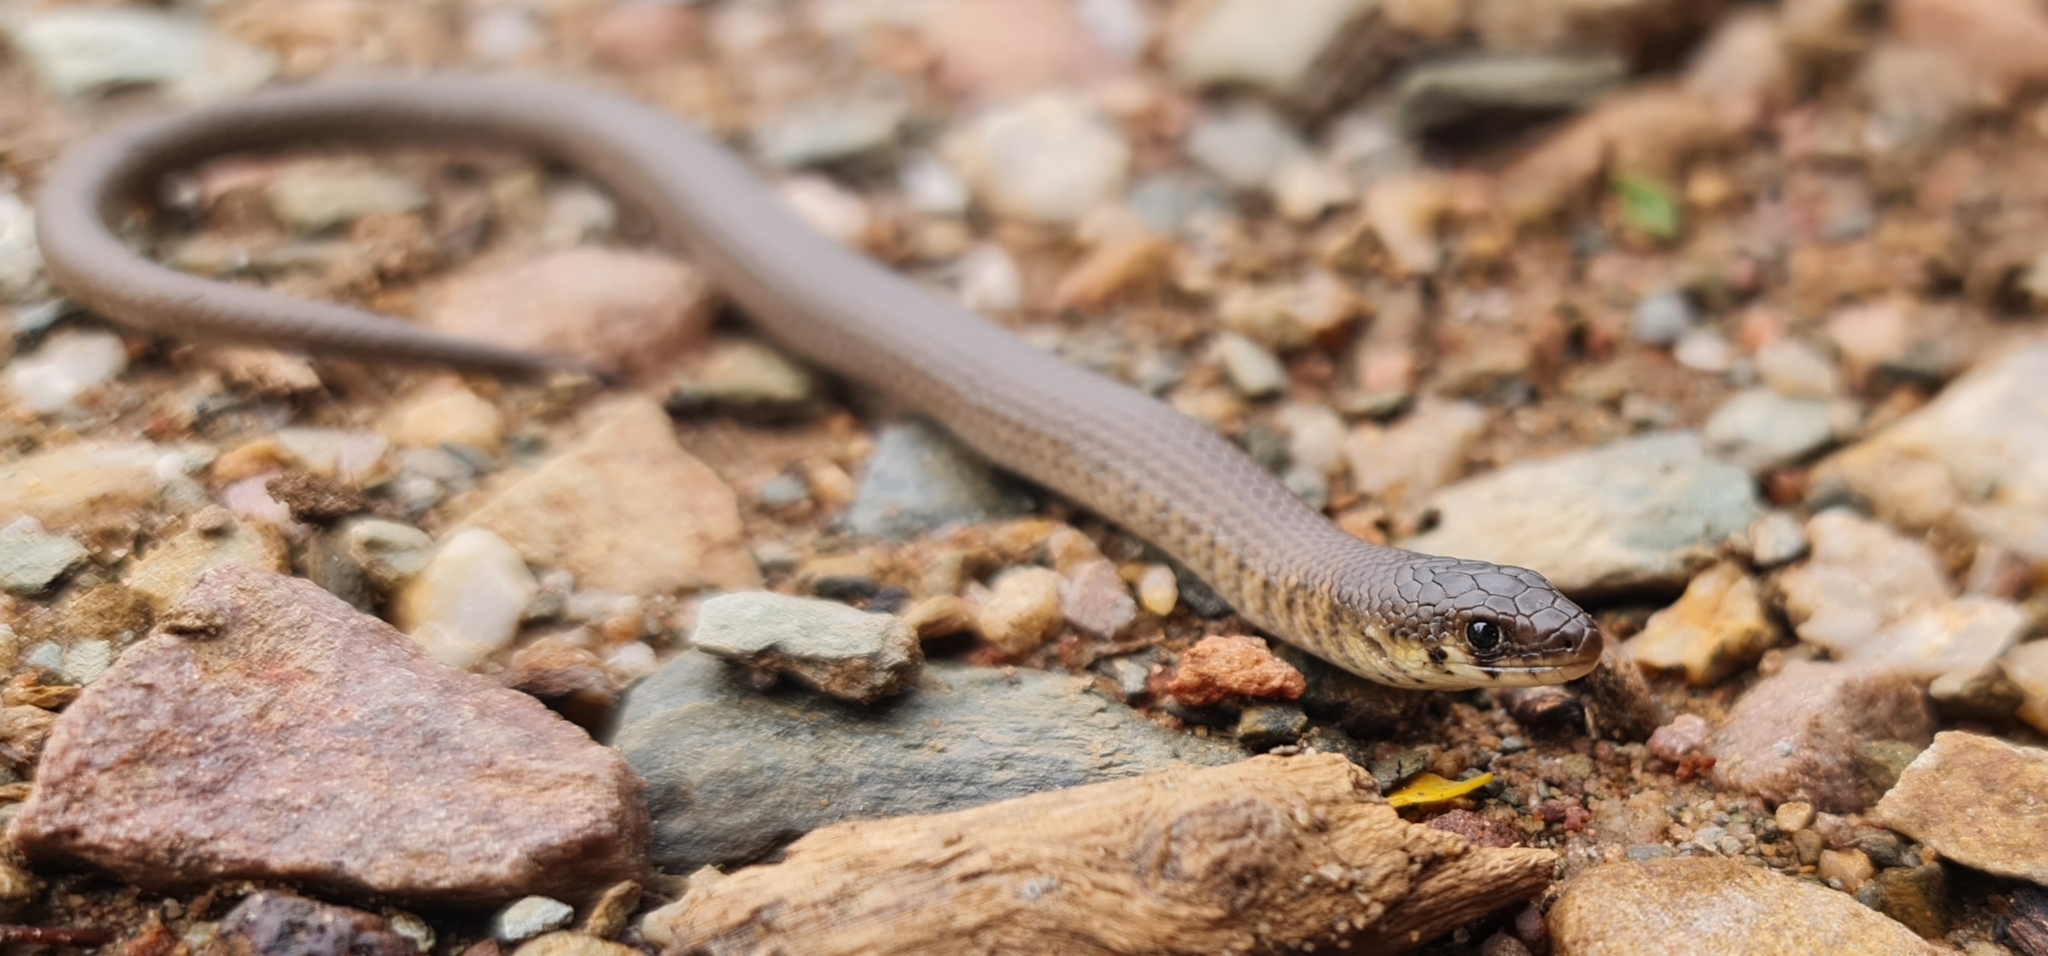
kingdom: Animalia
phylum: Chordata
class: Squamata
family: Pygopodidae
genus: Delma
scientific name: Delma molleri
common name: Gulfs delma
